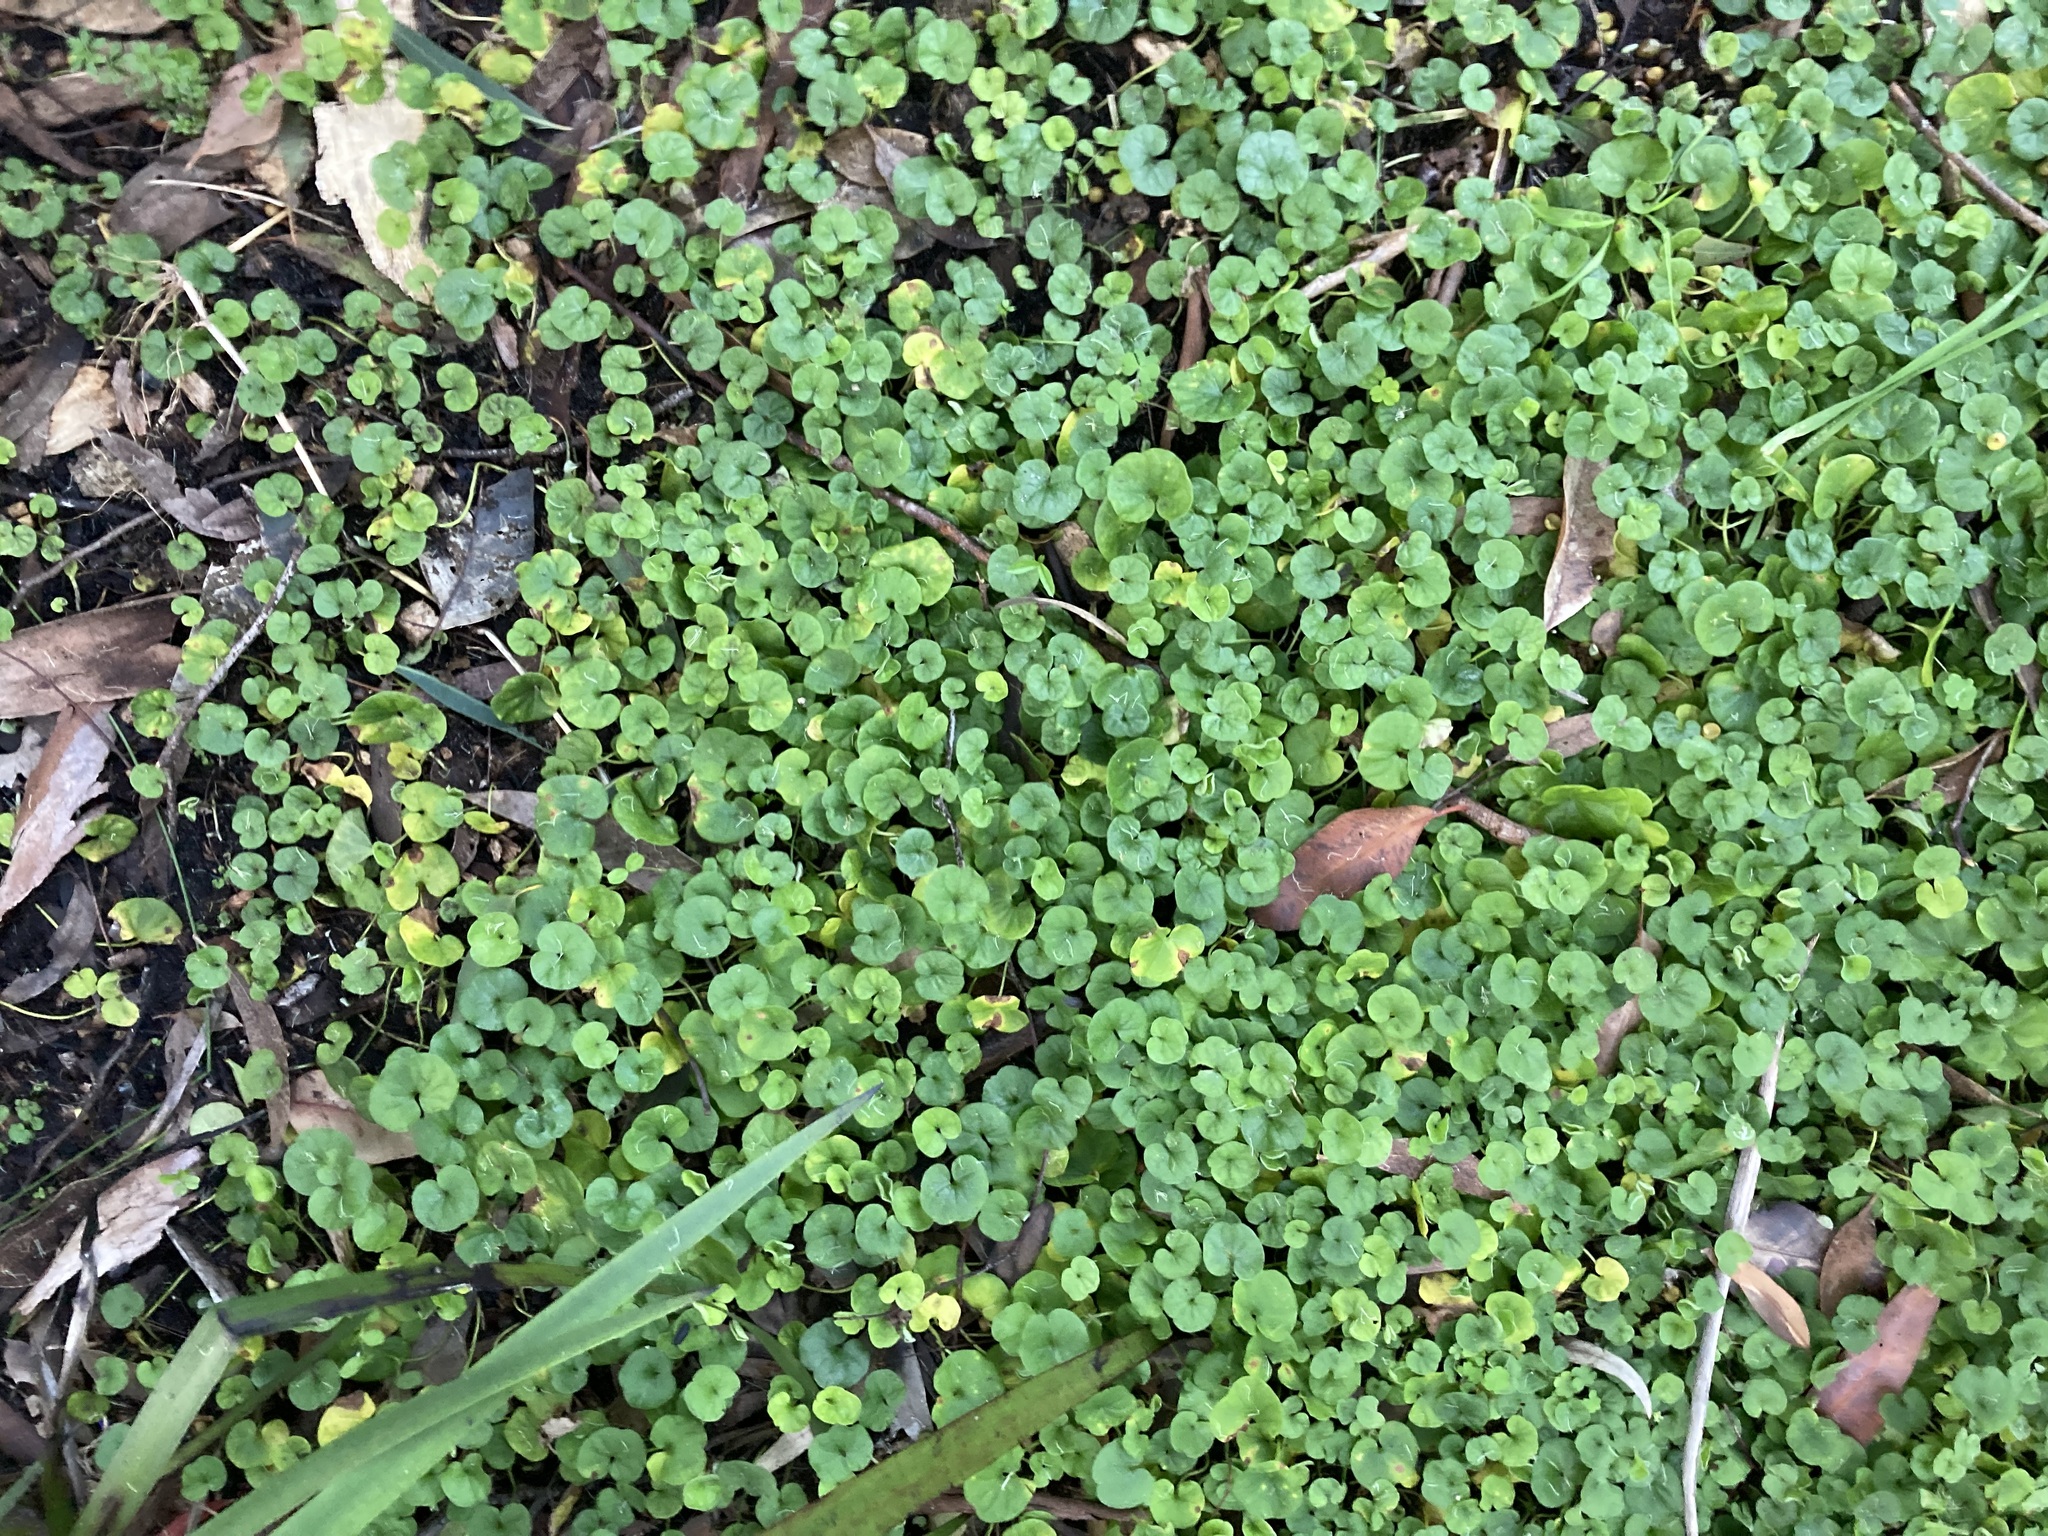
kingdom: Plantae
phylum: Tracheophyta
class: Magnoliopsida
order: Solanales
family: Convolvulaceae
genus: Dichondra
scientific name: Dichondra repens
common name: Kidneyweed
